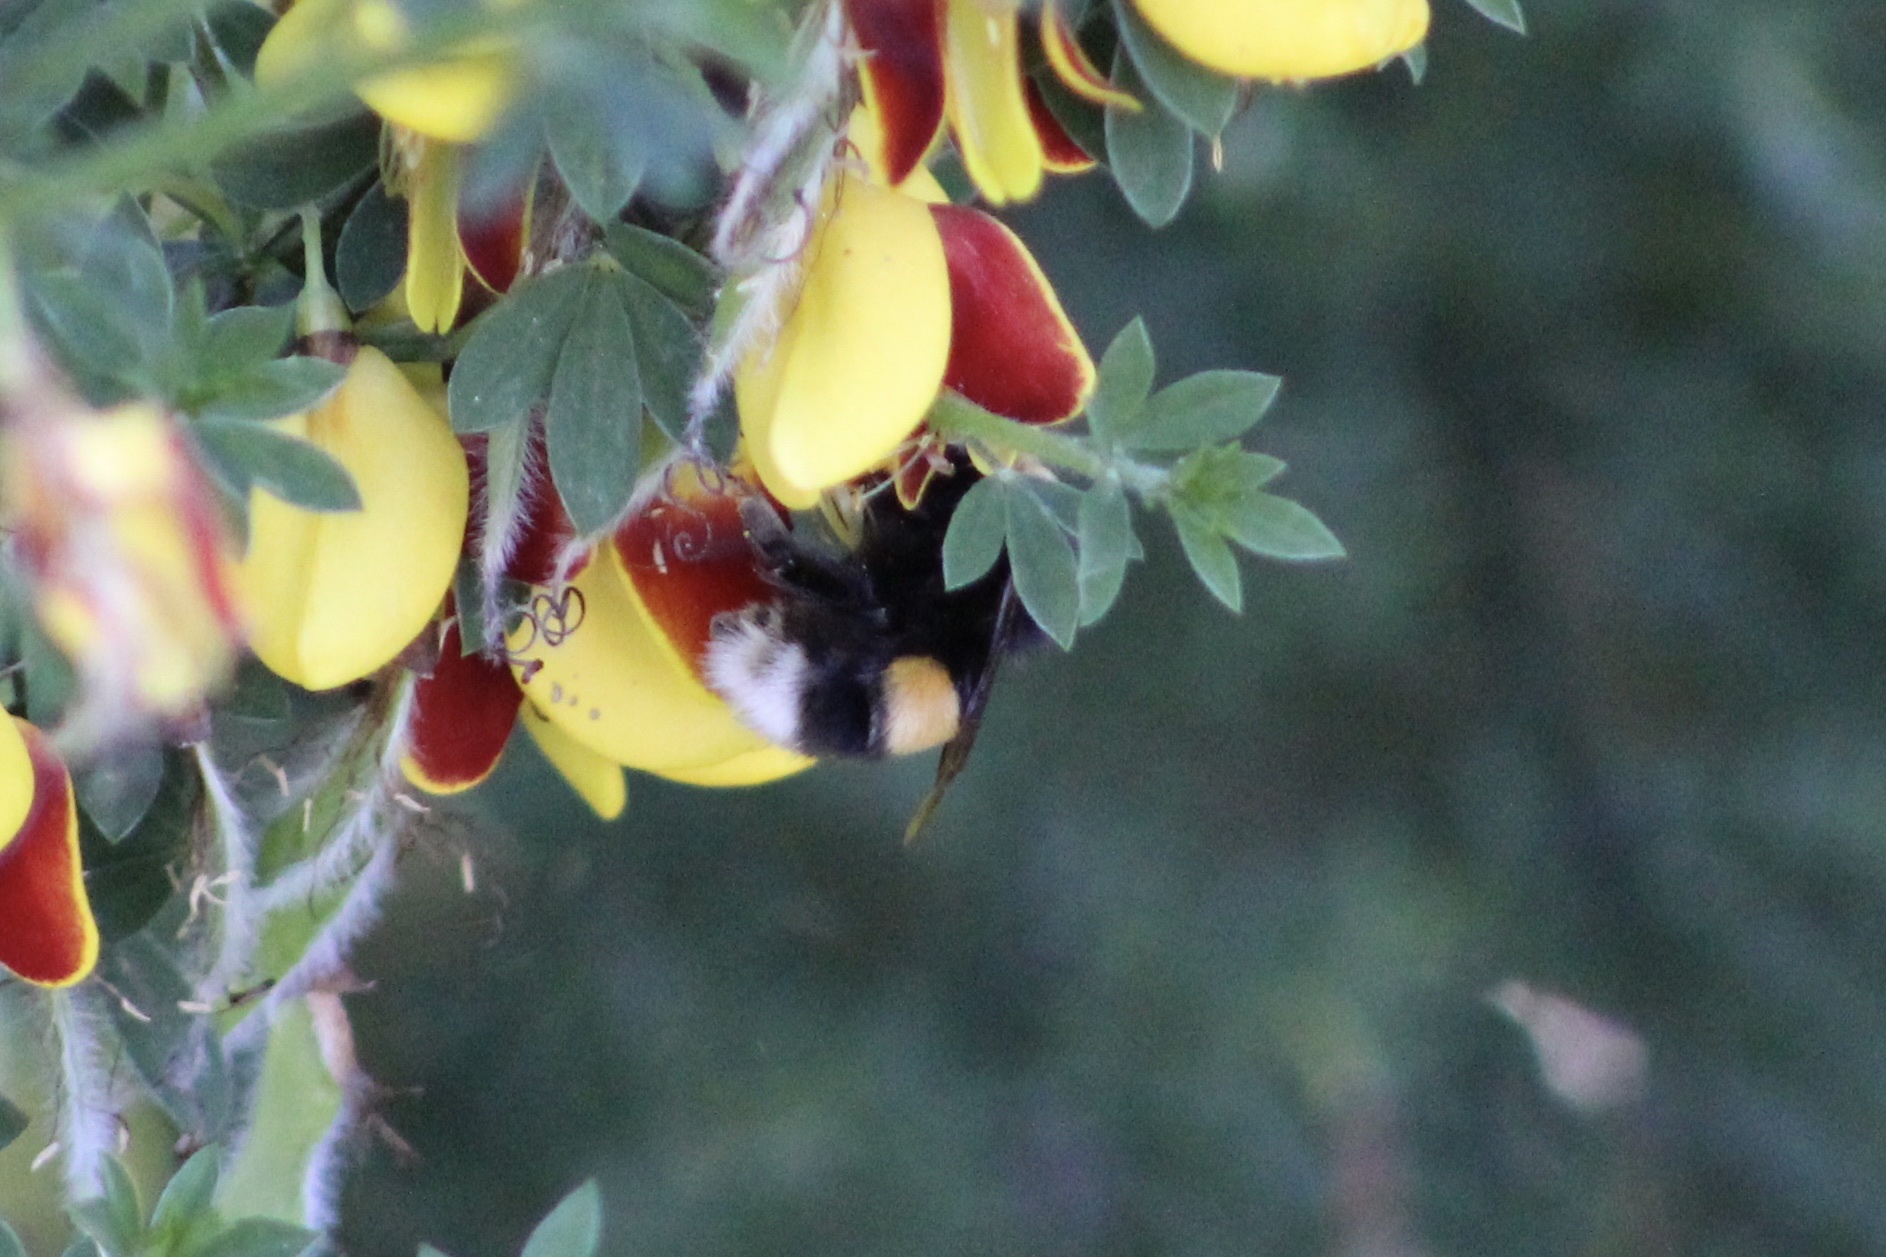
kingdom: Animalia
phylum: Arthropoda
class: Insecta
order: Hymenoptera
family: Apidae
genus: Bombus
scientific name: Bombus terrestris
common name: Buff-tailed bumblebee
